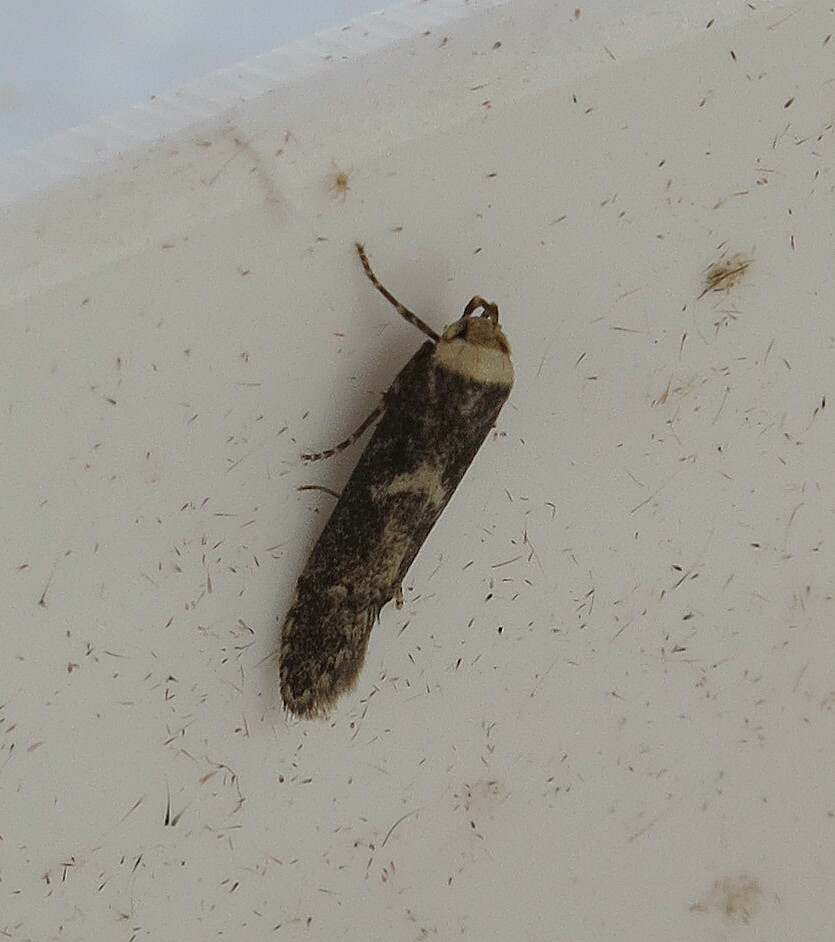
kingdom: Animalia
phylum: Arthropoda
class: Insecta
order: Lepidoptera
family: Blastobasidae
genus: Blastobasis
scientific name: Blastobasis adustella
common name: Dingy dowd
